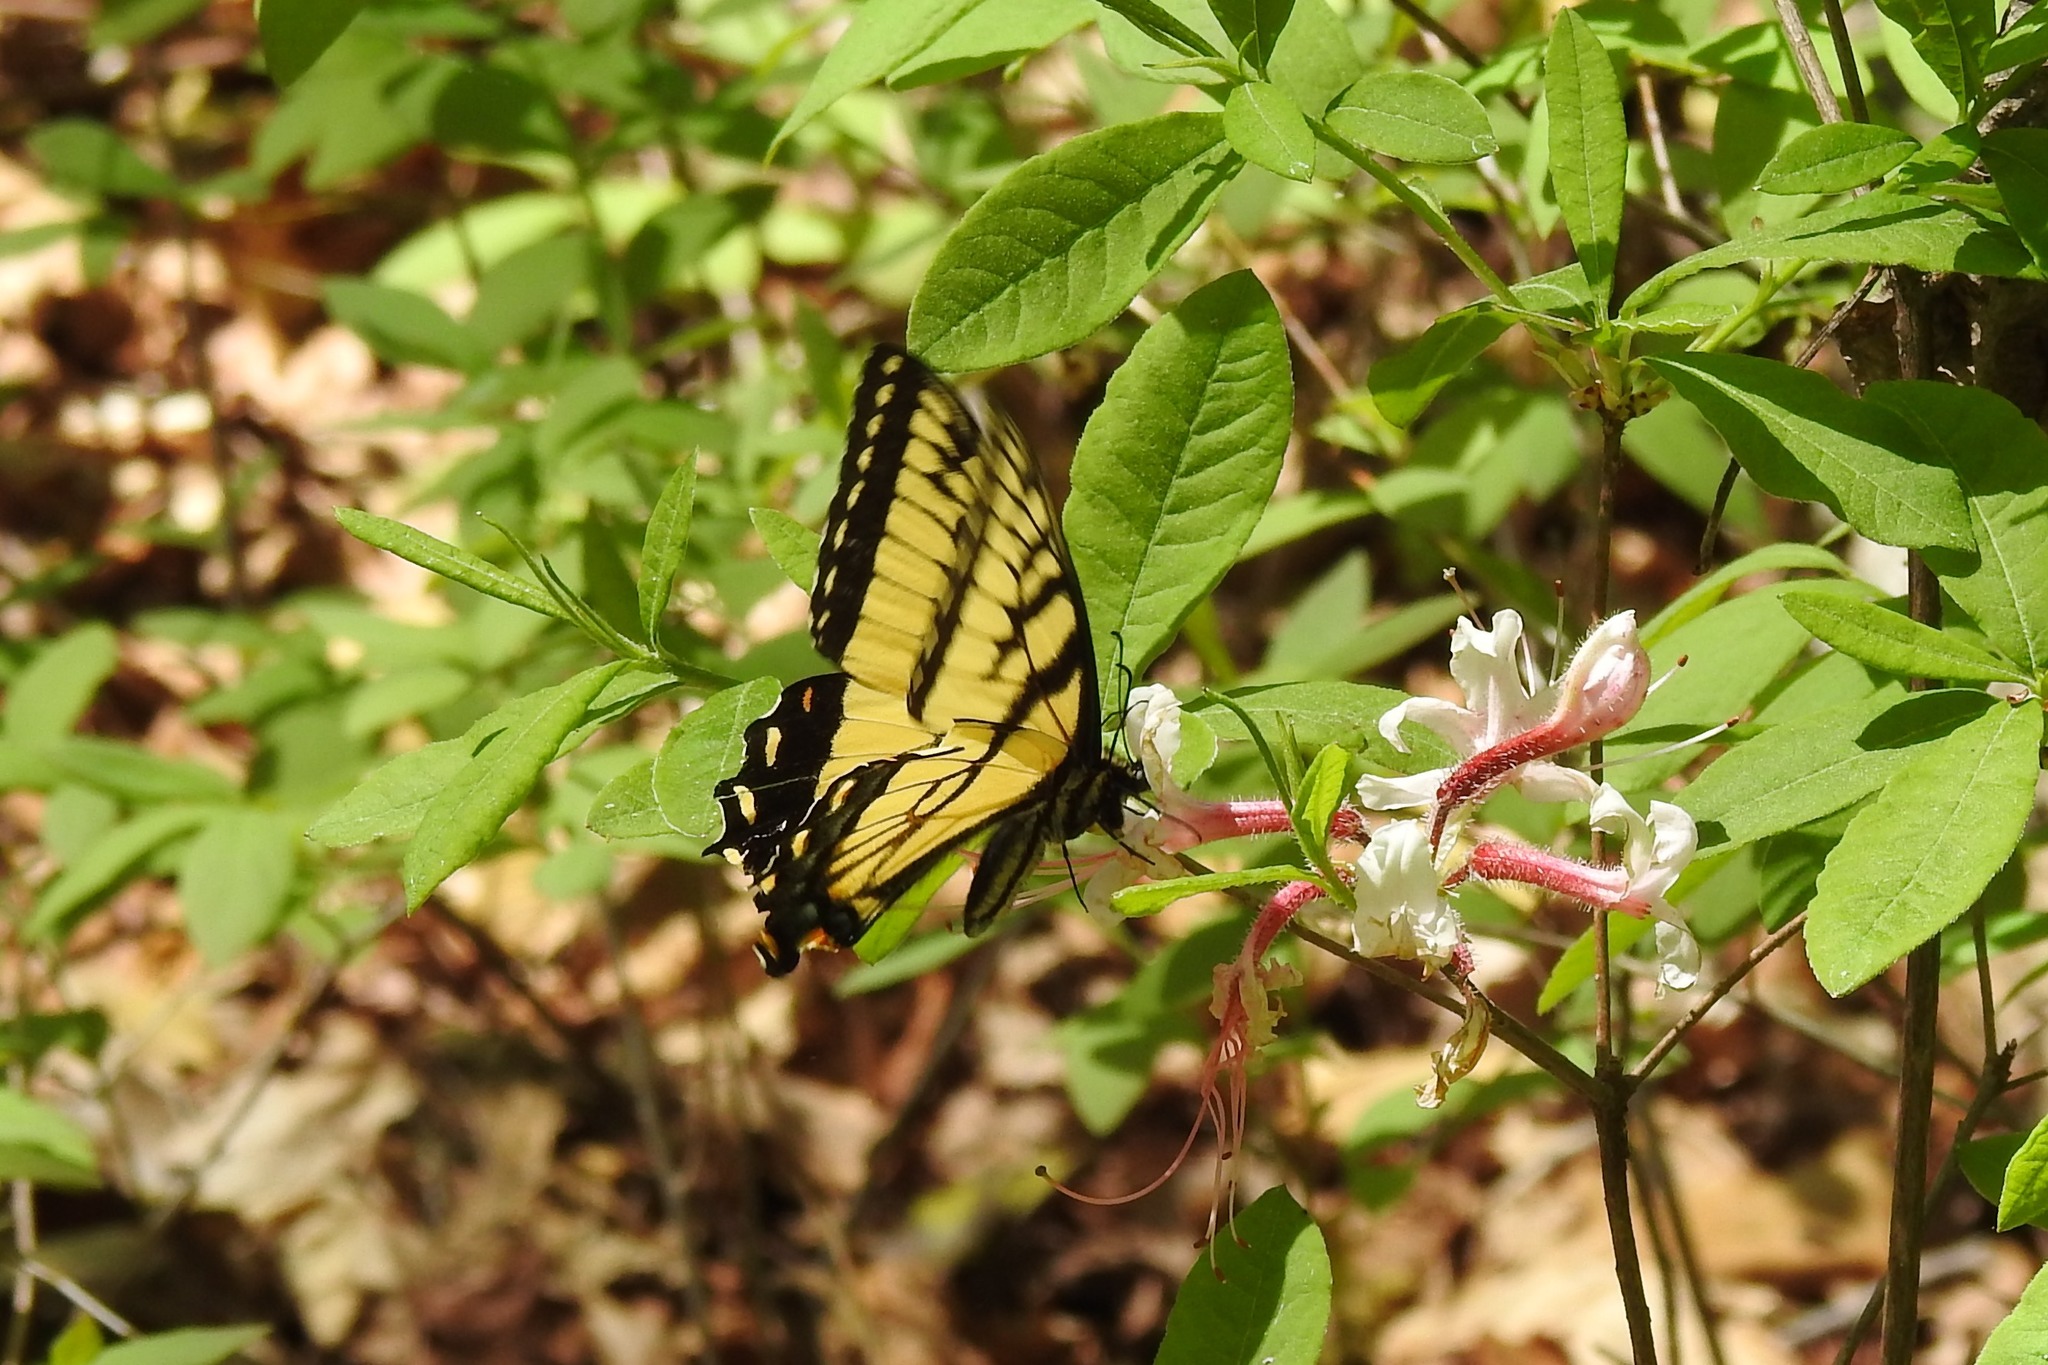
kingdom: Animalia
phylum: Arthropoda
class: Insecta
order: Lepidoptera
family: Papilionidae
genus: Papilio
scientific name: Papilio glaucus
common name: Tiger swallowtail
